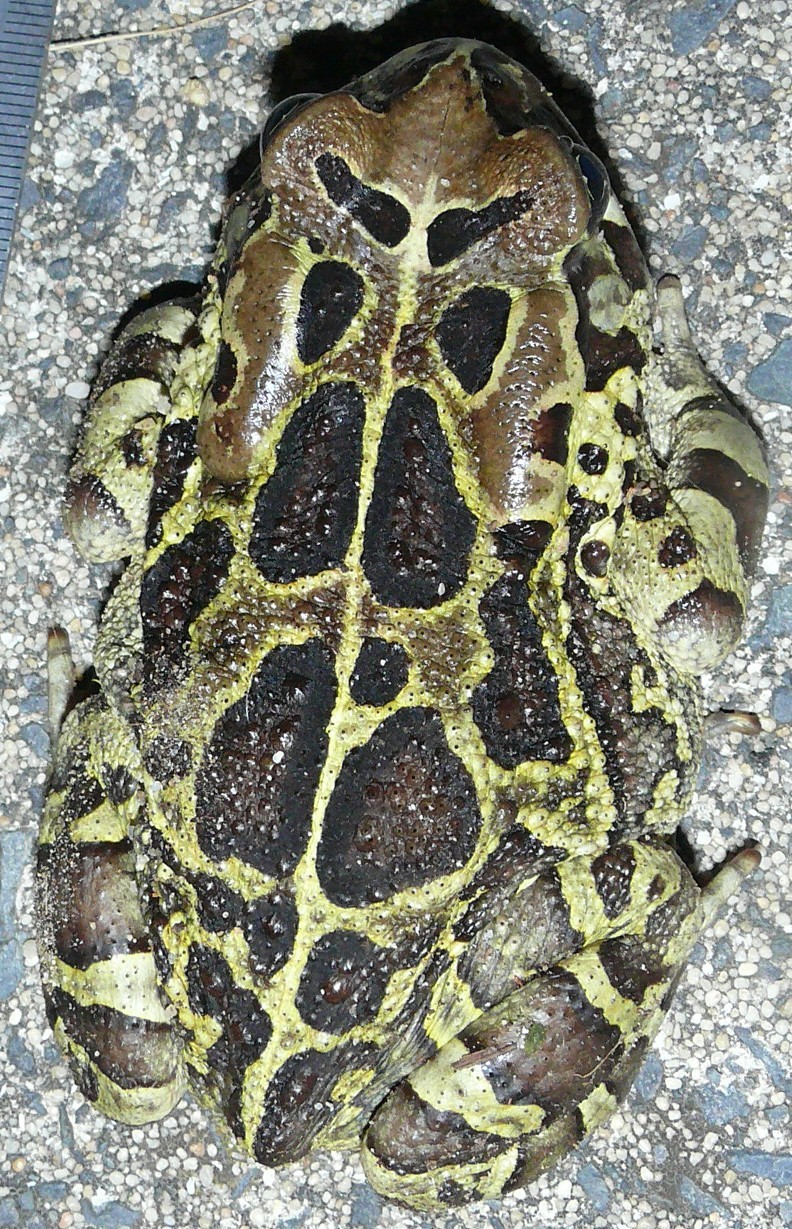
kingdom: Animalia
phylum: Chordata
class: Amphibia
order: Anura
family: Bufonidae
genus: Sclerophrys
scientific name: Sclerophrys pantherina
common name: Panther toad
